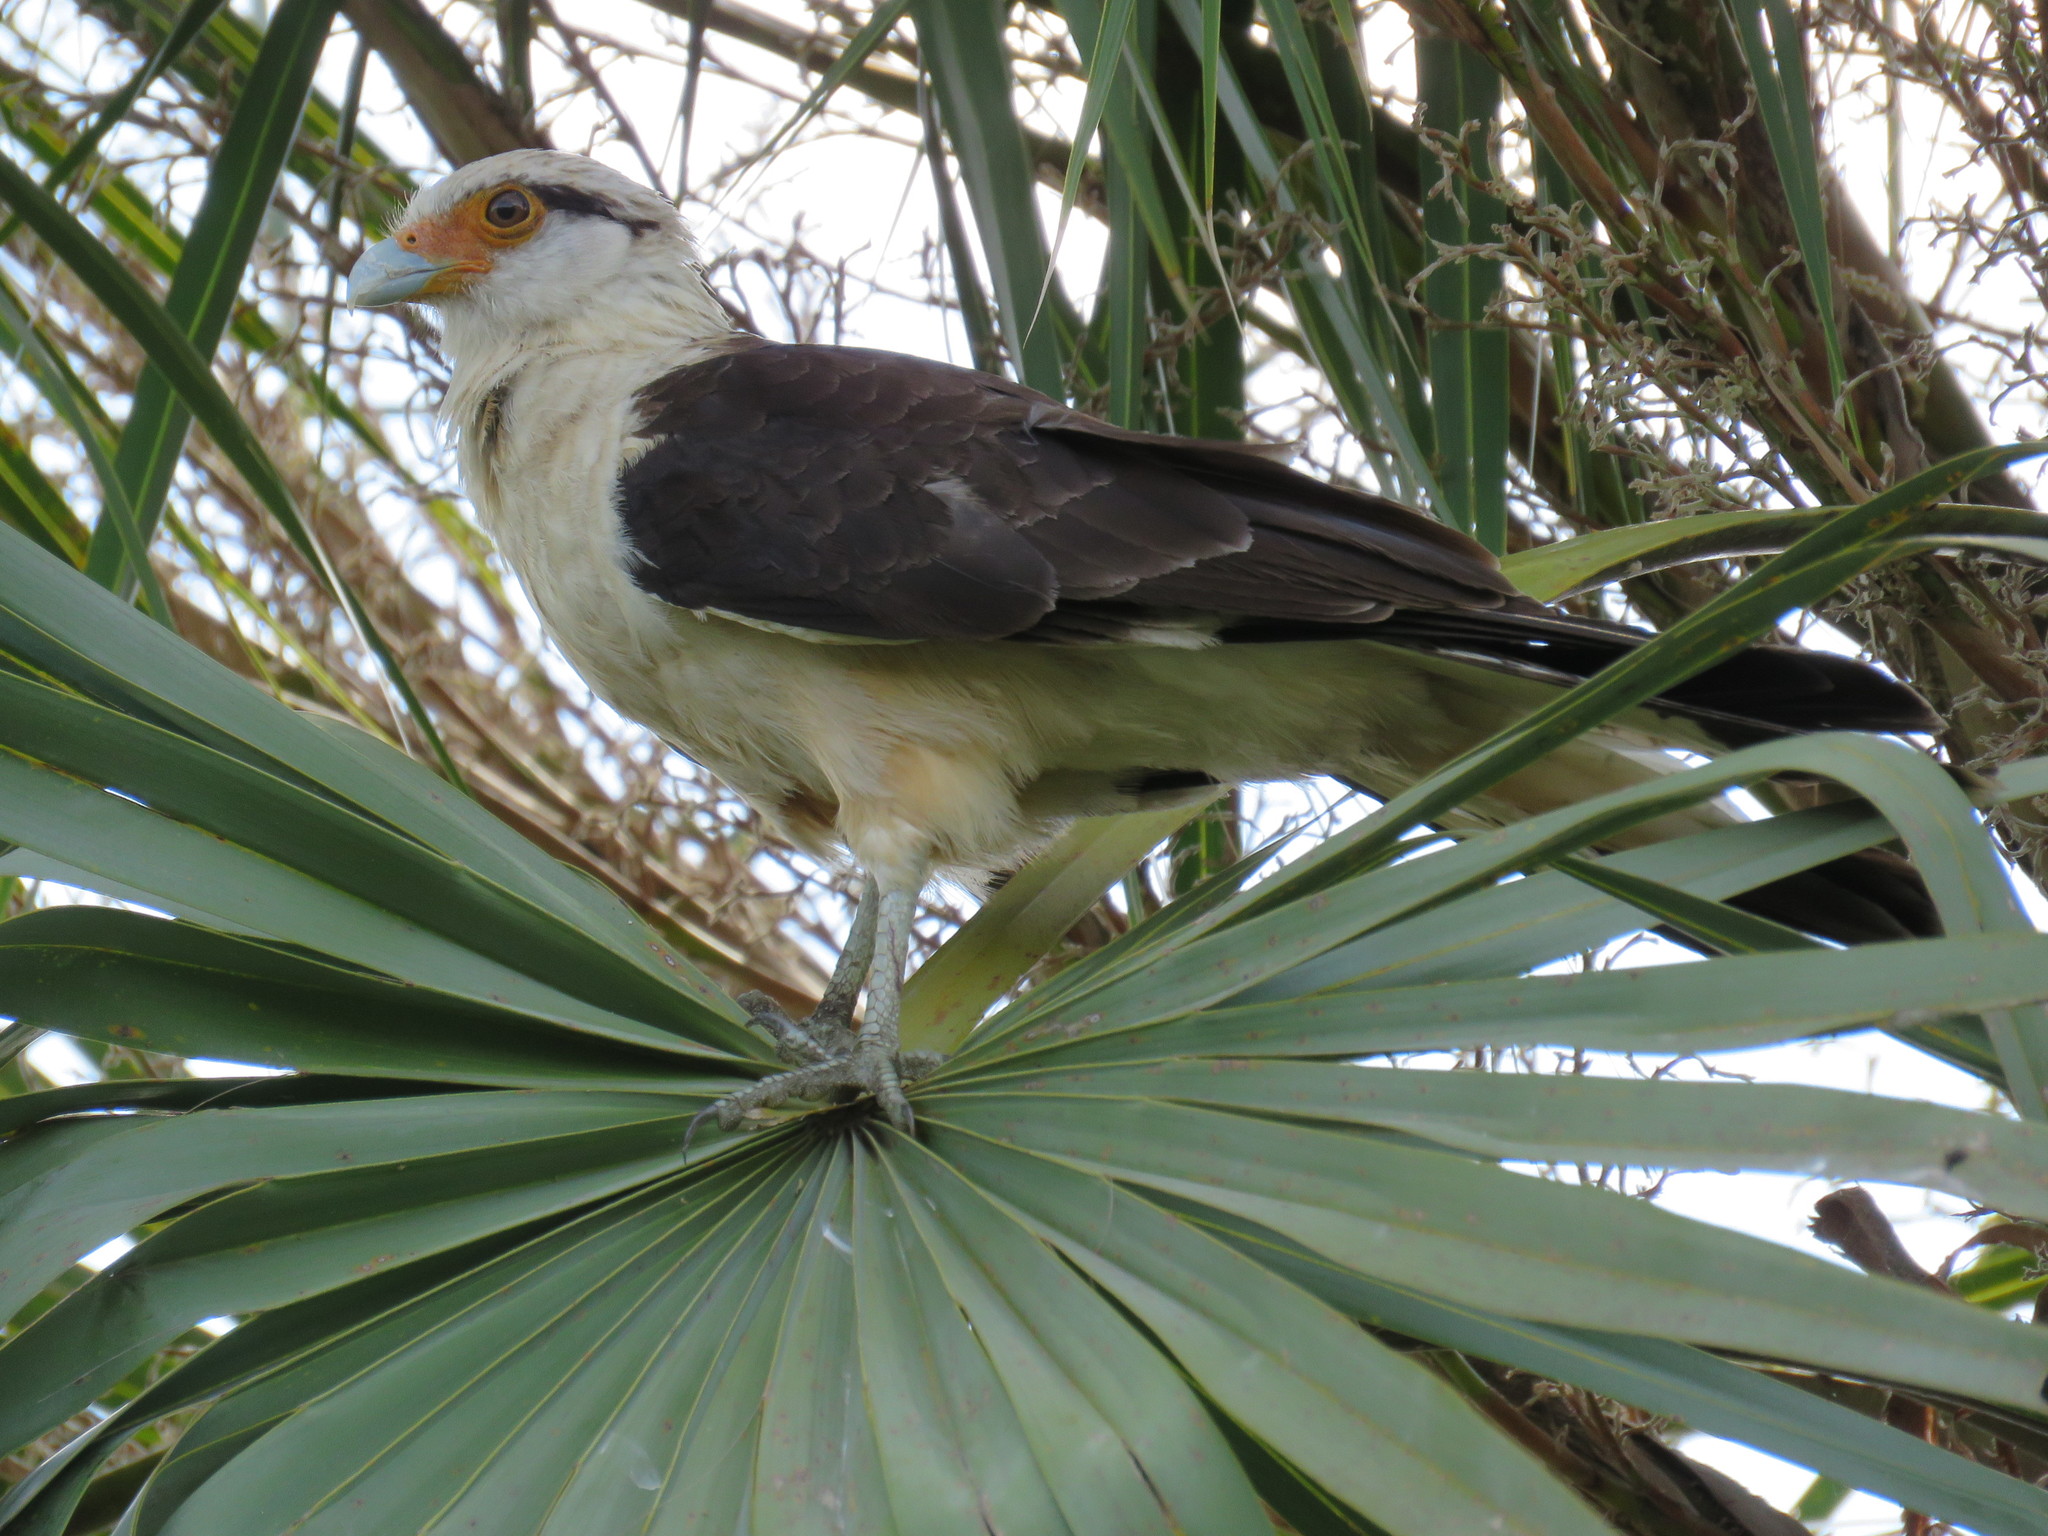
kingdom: Animalia
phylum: Chordata
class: Aves
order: Falconiformes
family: Falconidae
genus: Daptrius
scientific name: Daptrius
